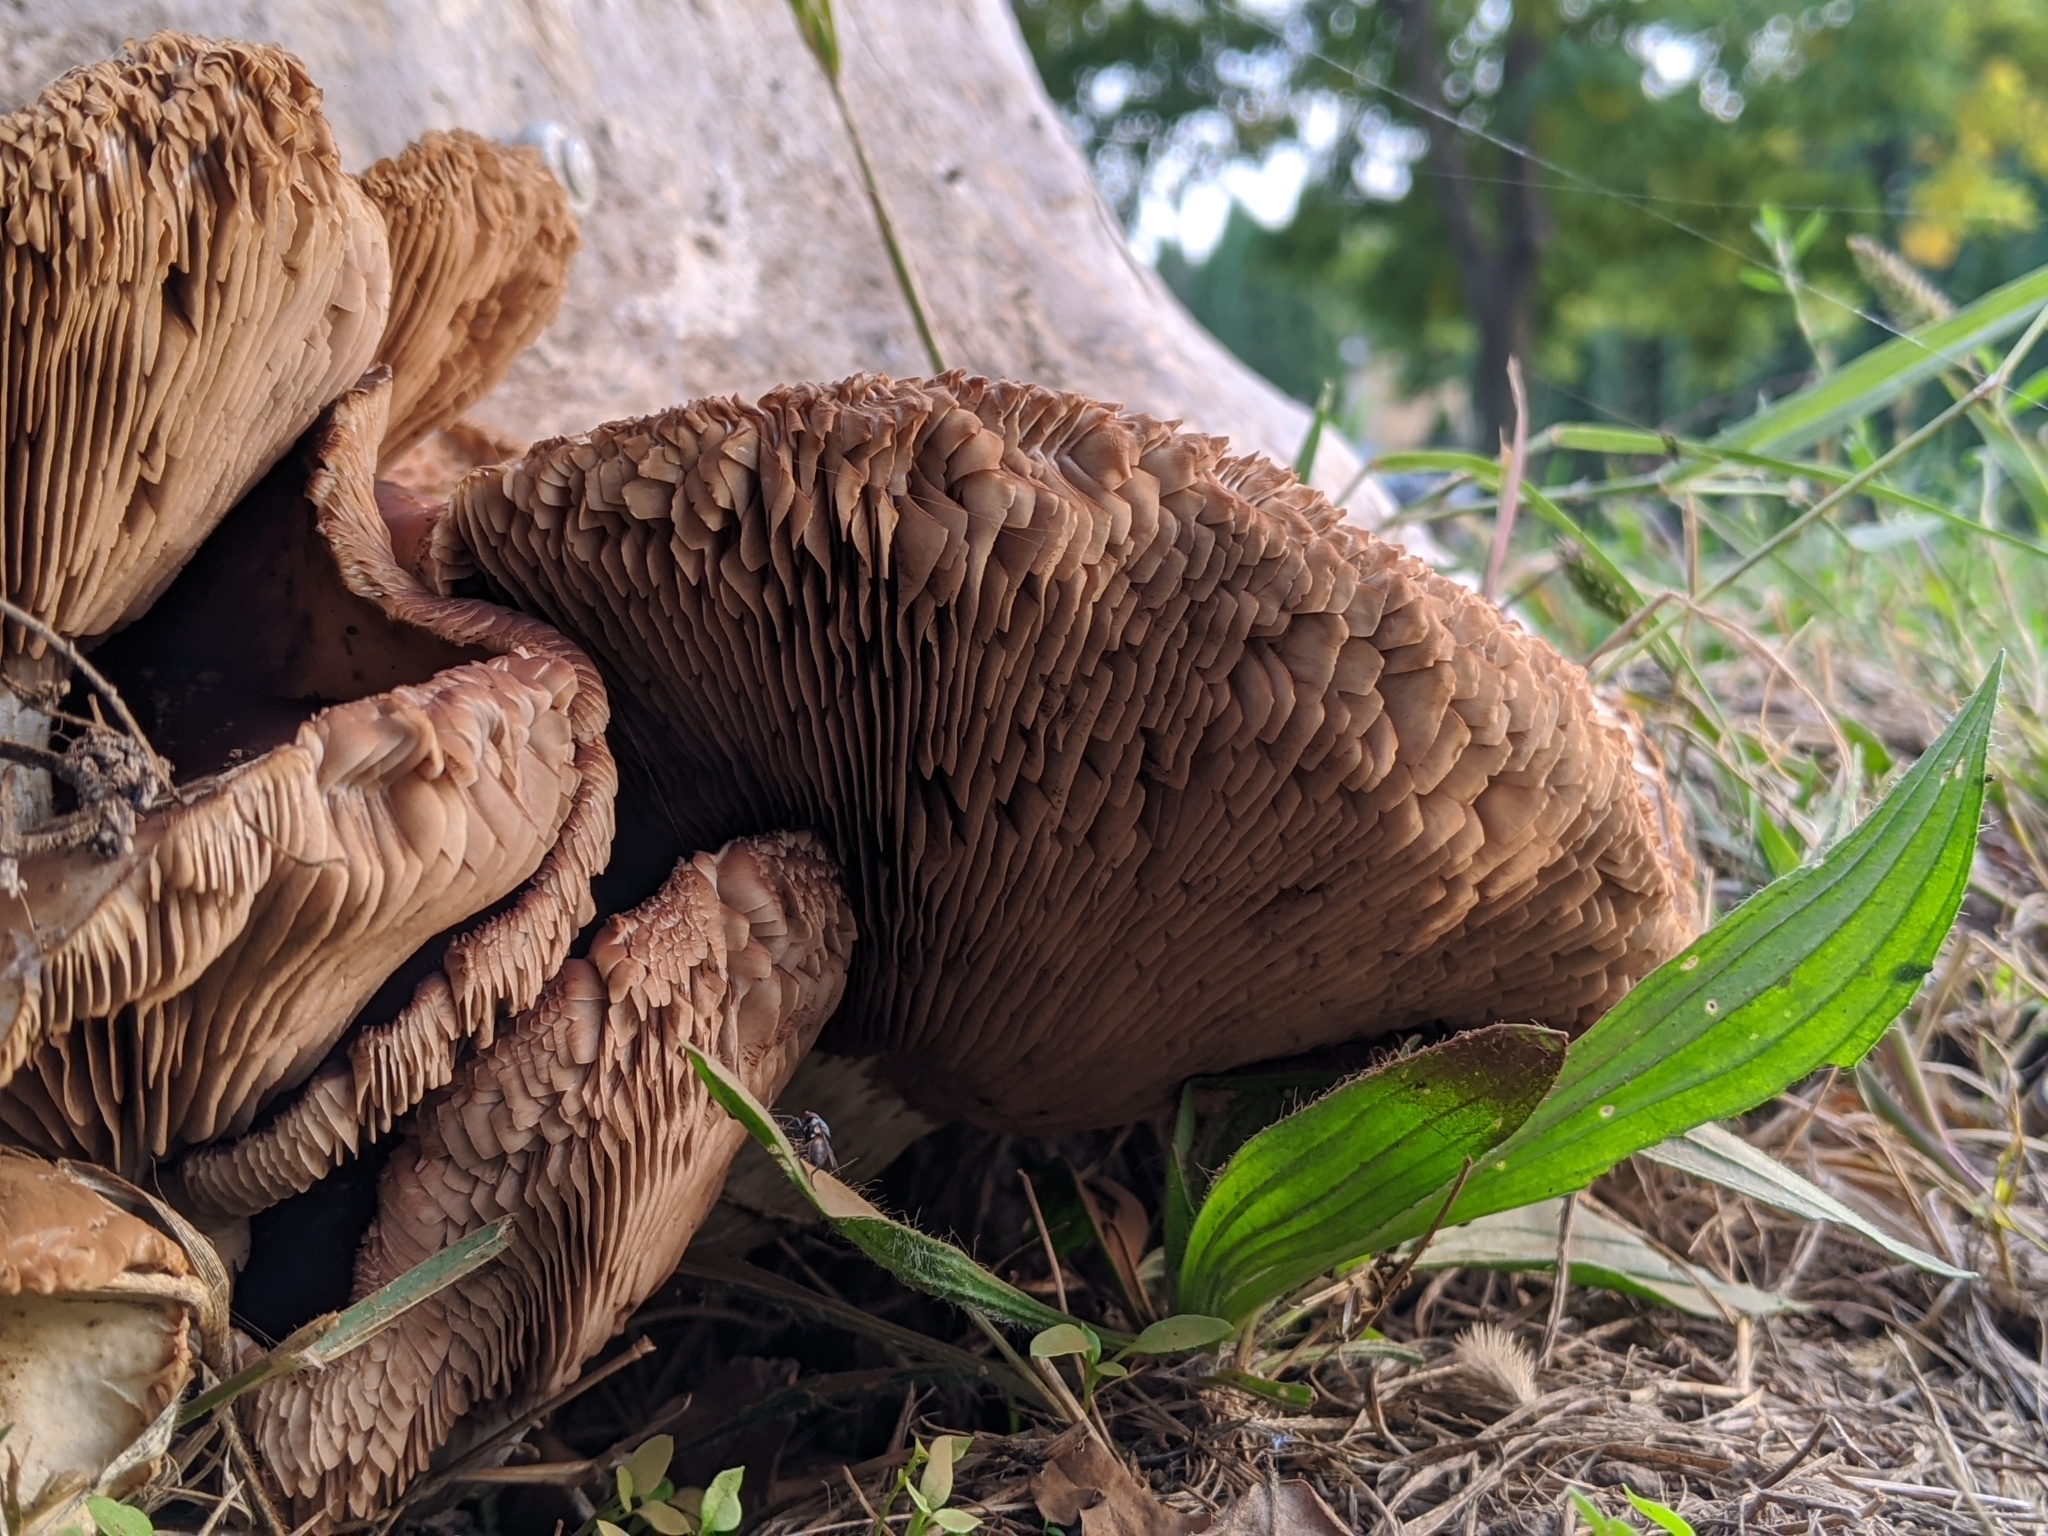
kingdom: Fungi
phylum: Basidiomycota
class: Agaricomycetes
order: Agaricales
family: Tubariaceae
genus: Cyclocybe
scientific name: Cyclocybe cylindracea
